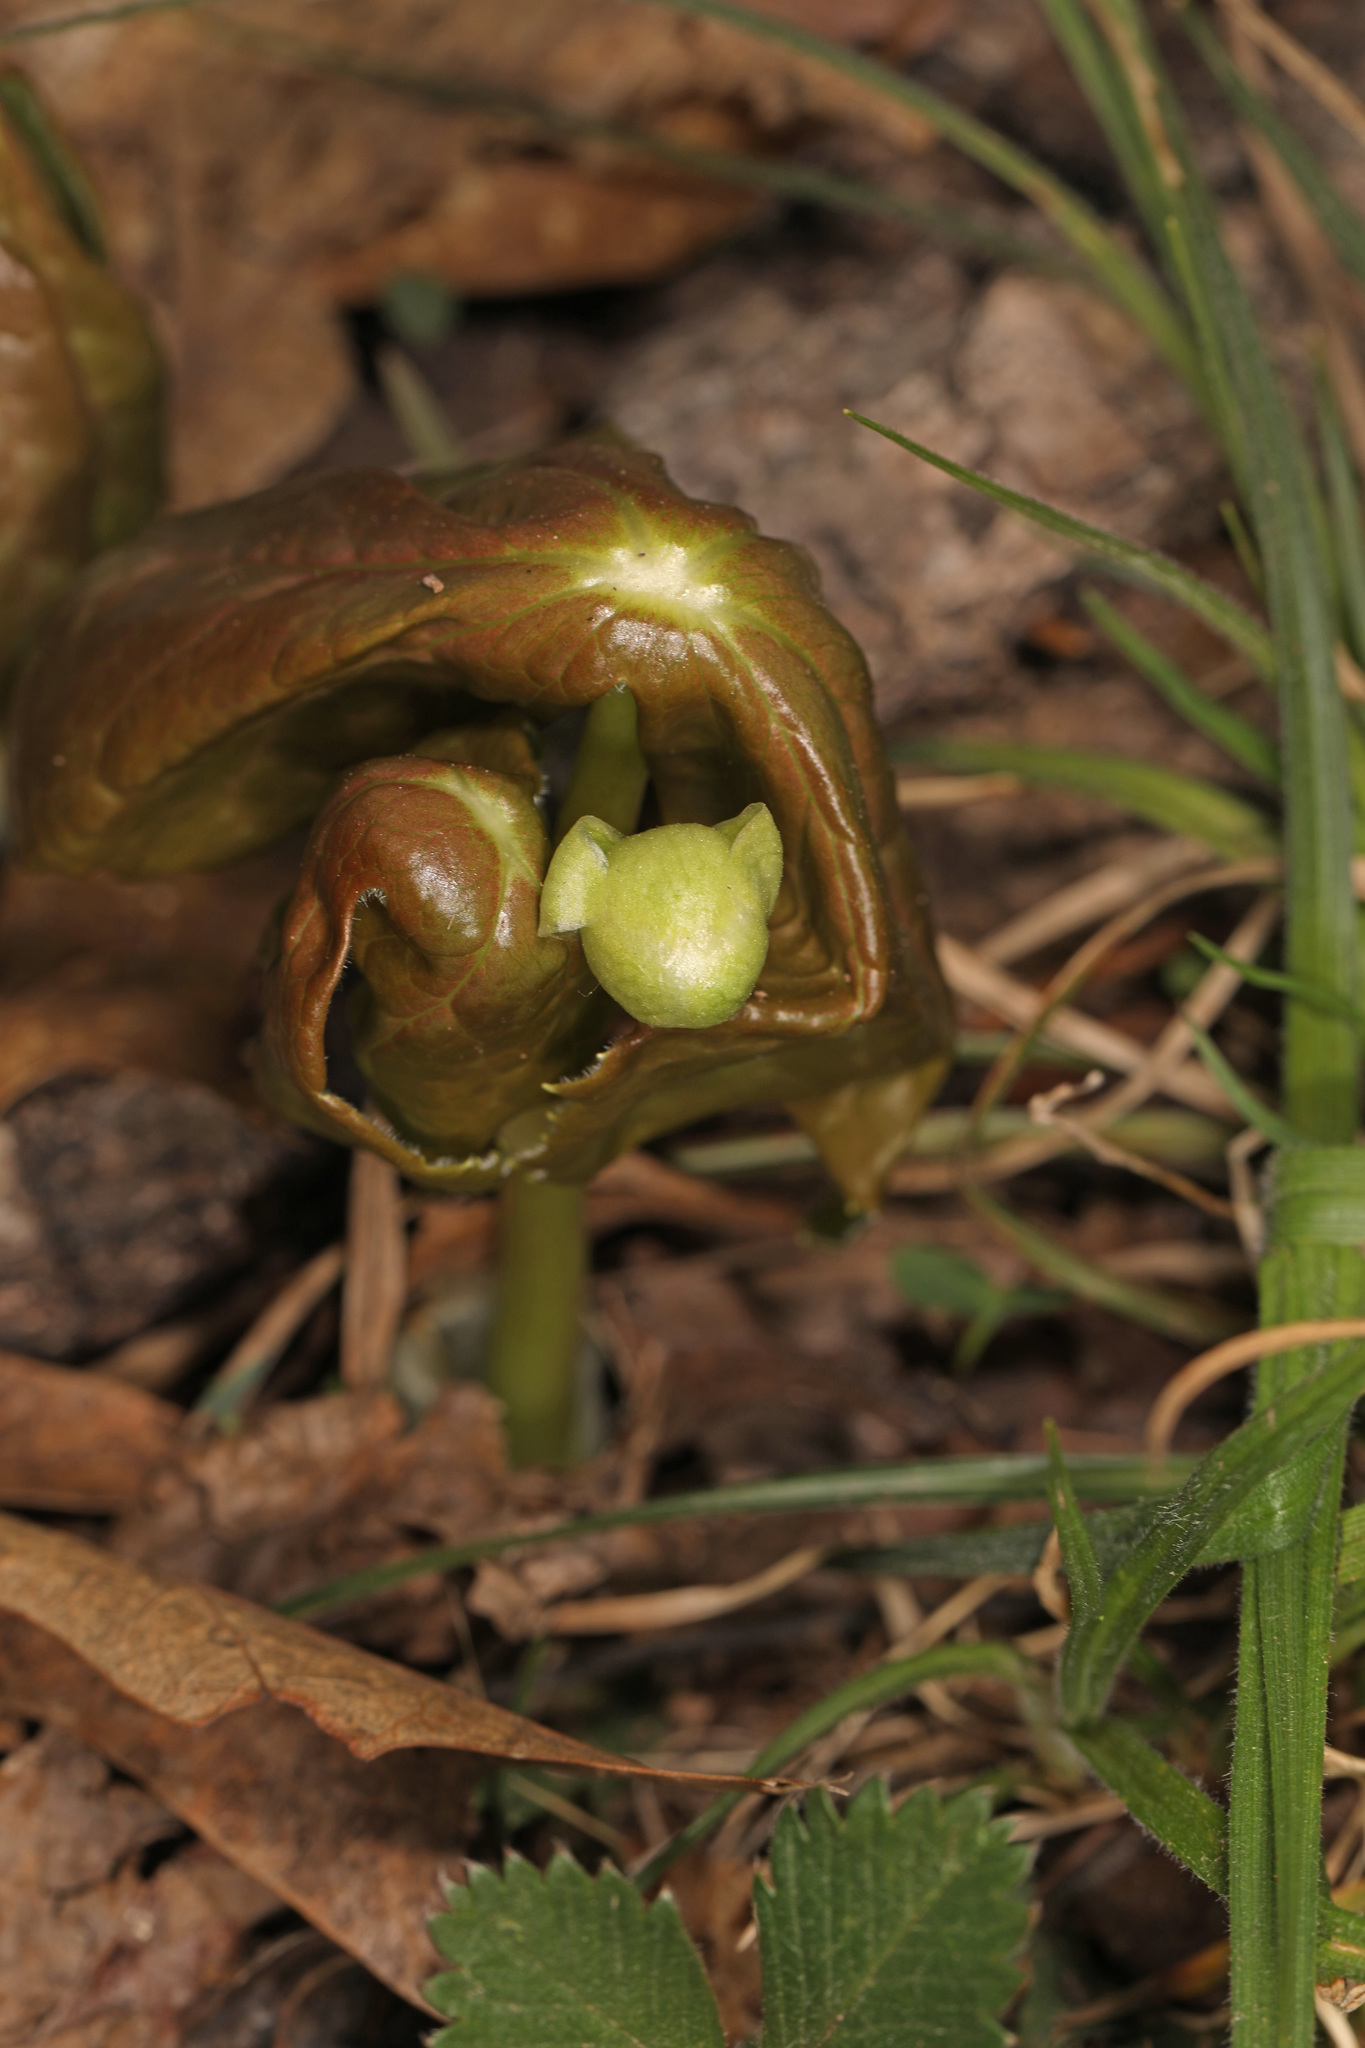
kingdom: Plantae
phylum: Tracheophyta
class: Magnoliopsida
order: Ranunculales
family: Berberidaceae
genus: Podophyllum
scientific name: Podophyllum peltatum
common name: Wild mandrake
